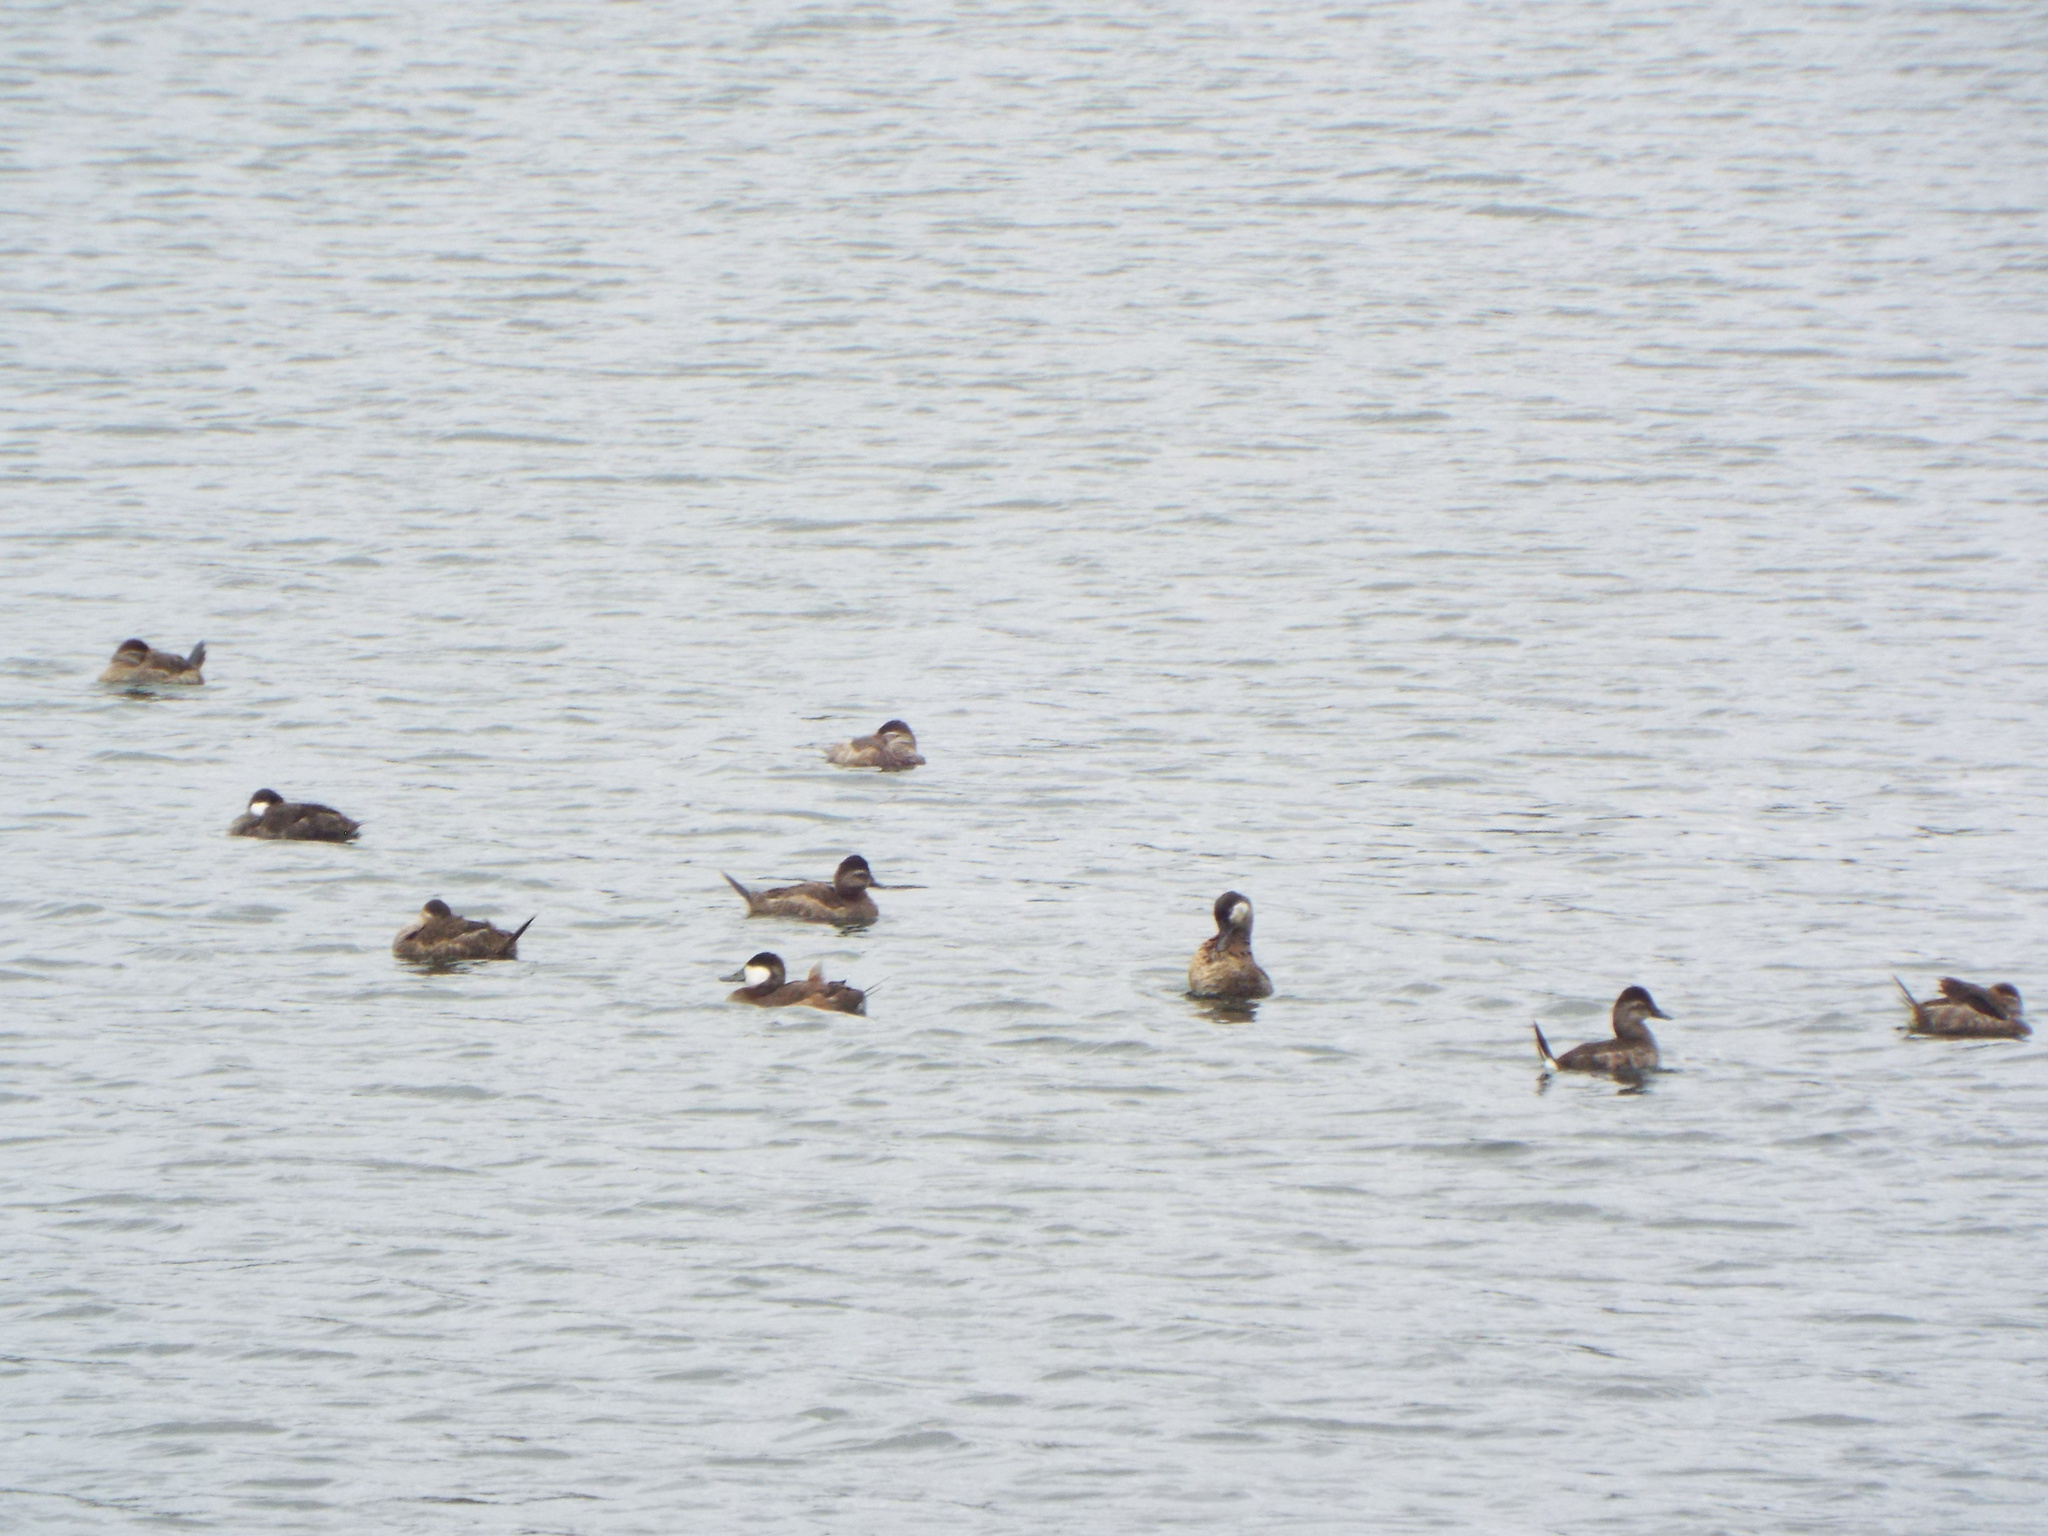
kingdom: Animalia
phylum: Chordata
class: Aves
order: Anseriformes
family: Anatidae
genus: Oxyura
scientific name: Oxyura jamaicensis
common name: Ruddy duck
